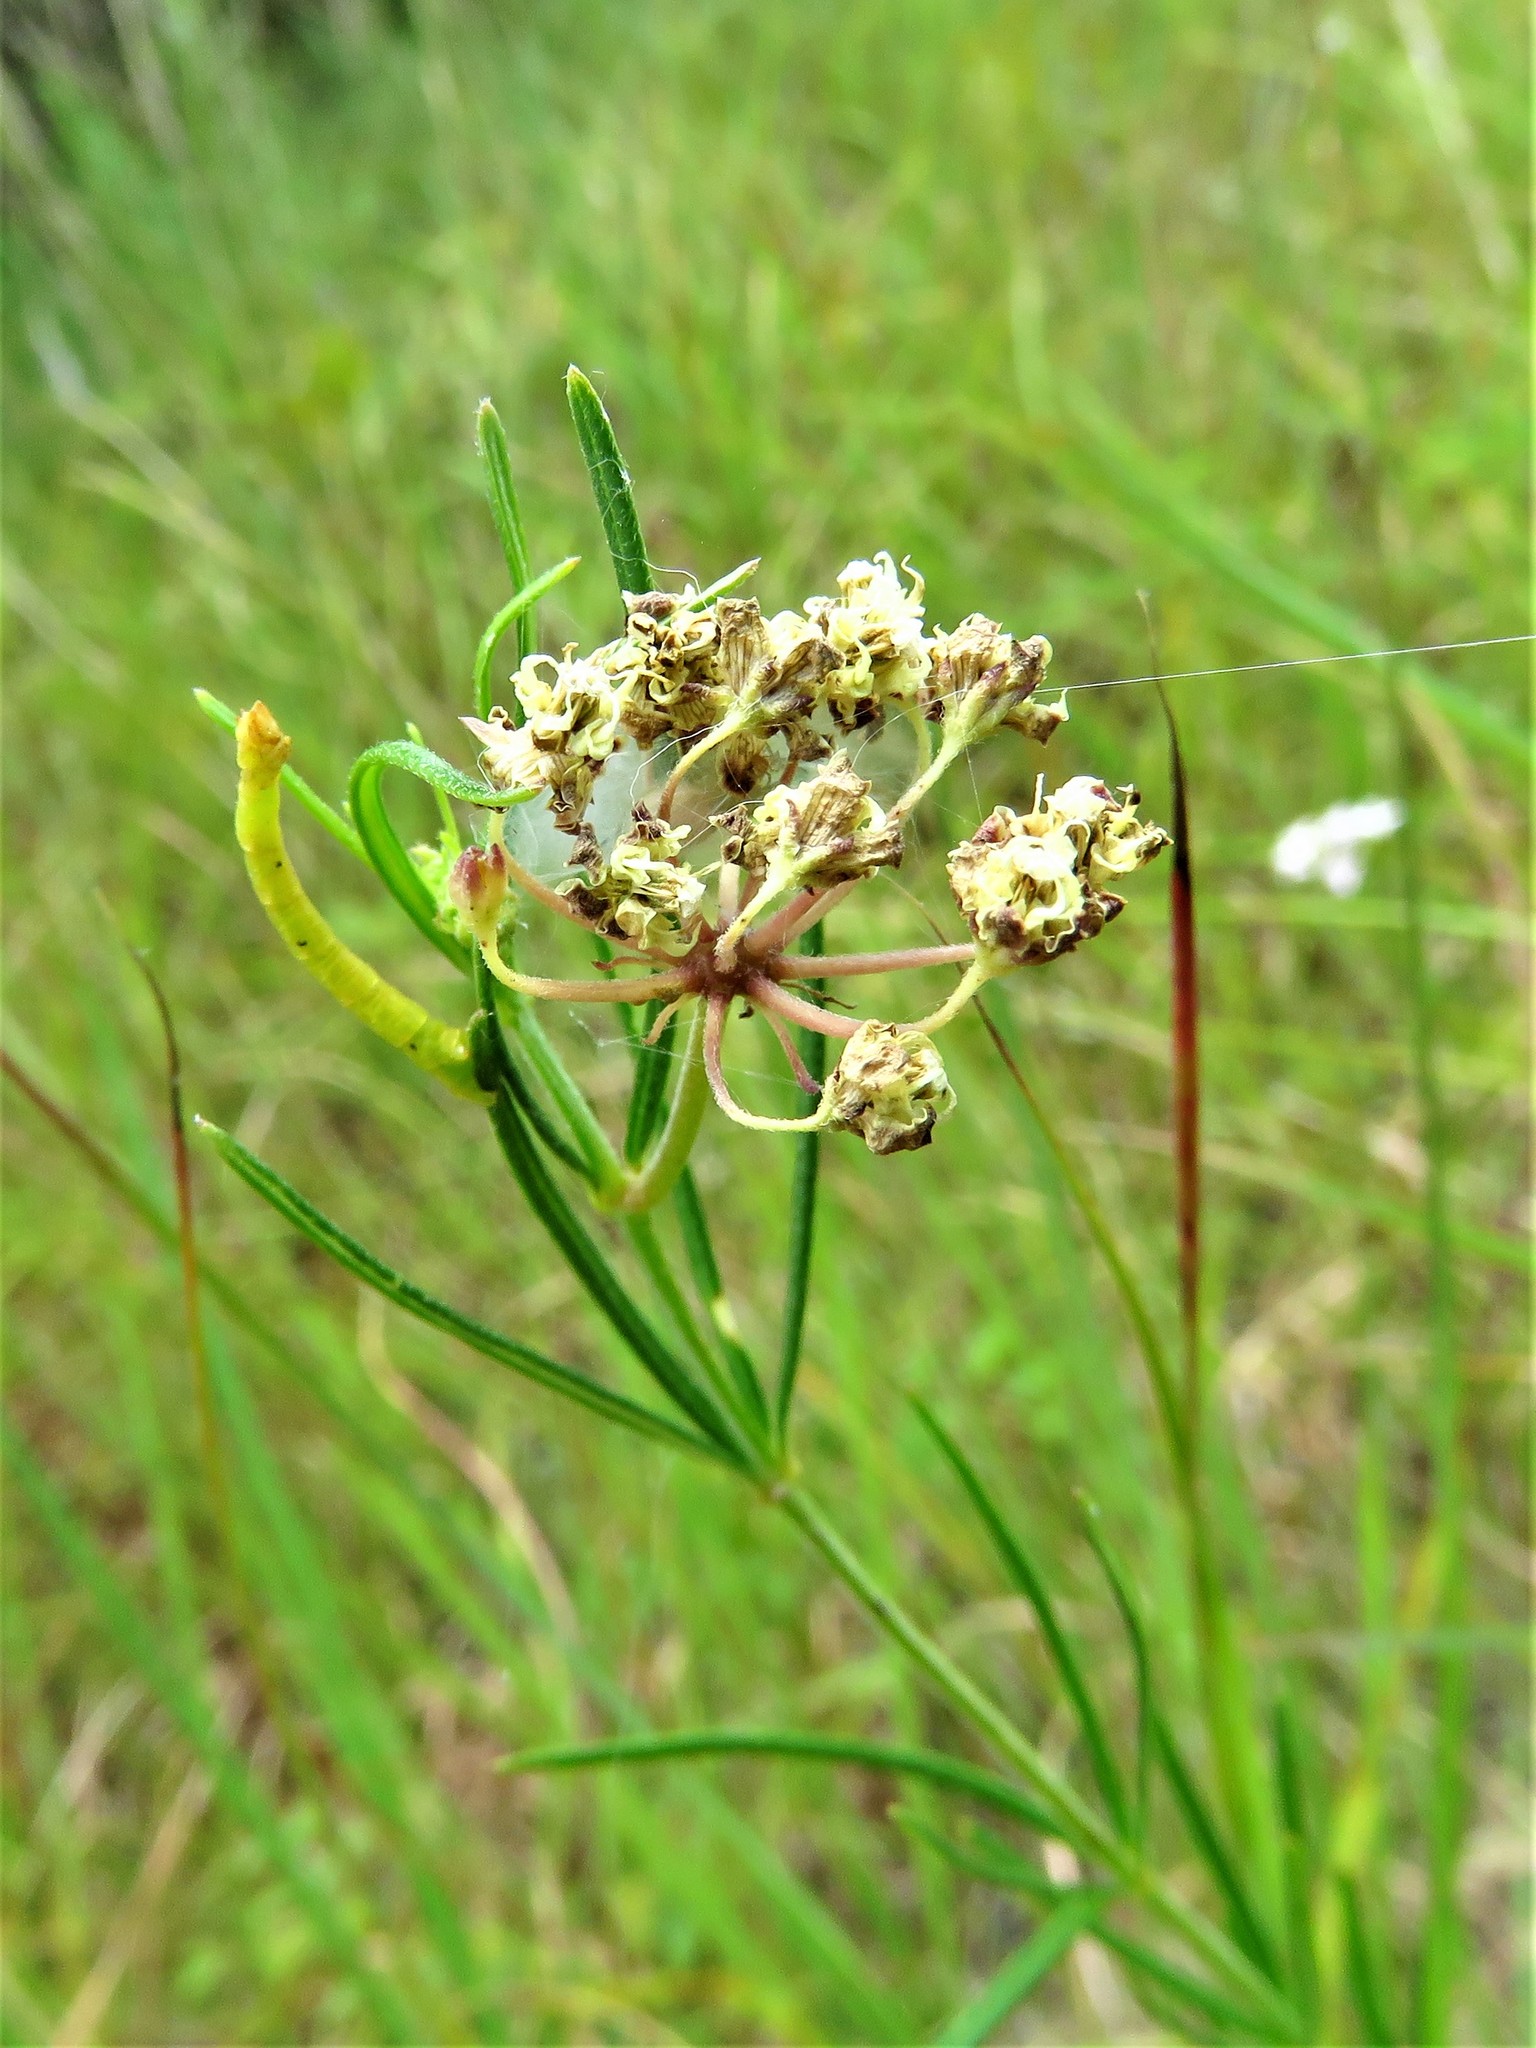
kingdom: Plantae
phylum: Tracheophyta
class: Magnoliopsida
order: Gentianales
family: Apocynaceae
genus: Asclepias
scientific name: Asclepias verticillata
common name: Eastern whorled milkweed
